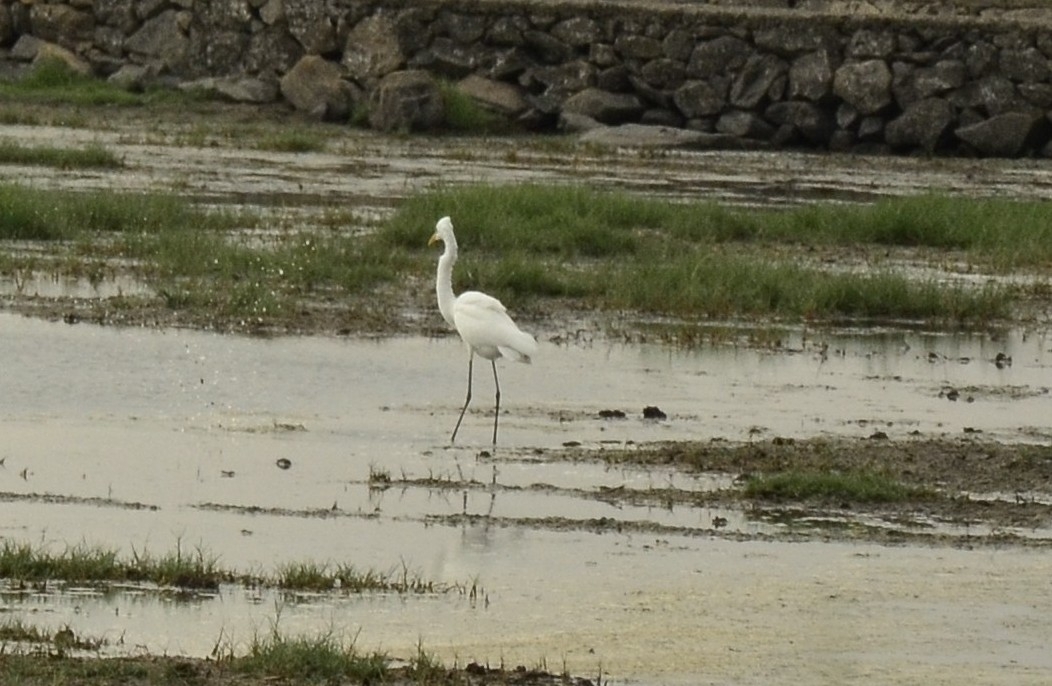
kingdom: Animalia
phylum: Chordata
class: Aves
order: Pelecaniformes
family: Ardeidae
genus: Ardea
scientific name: Ardea alba
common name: Great egret
